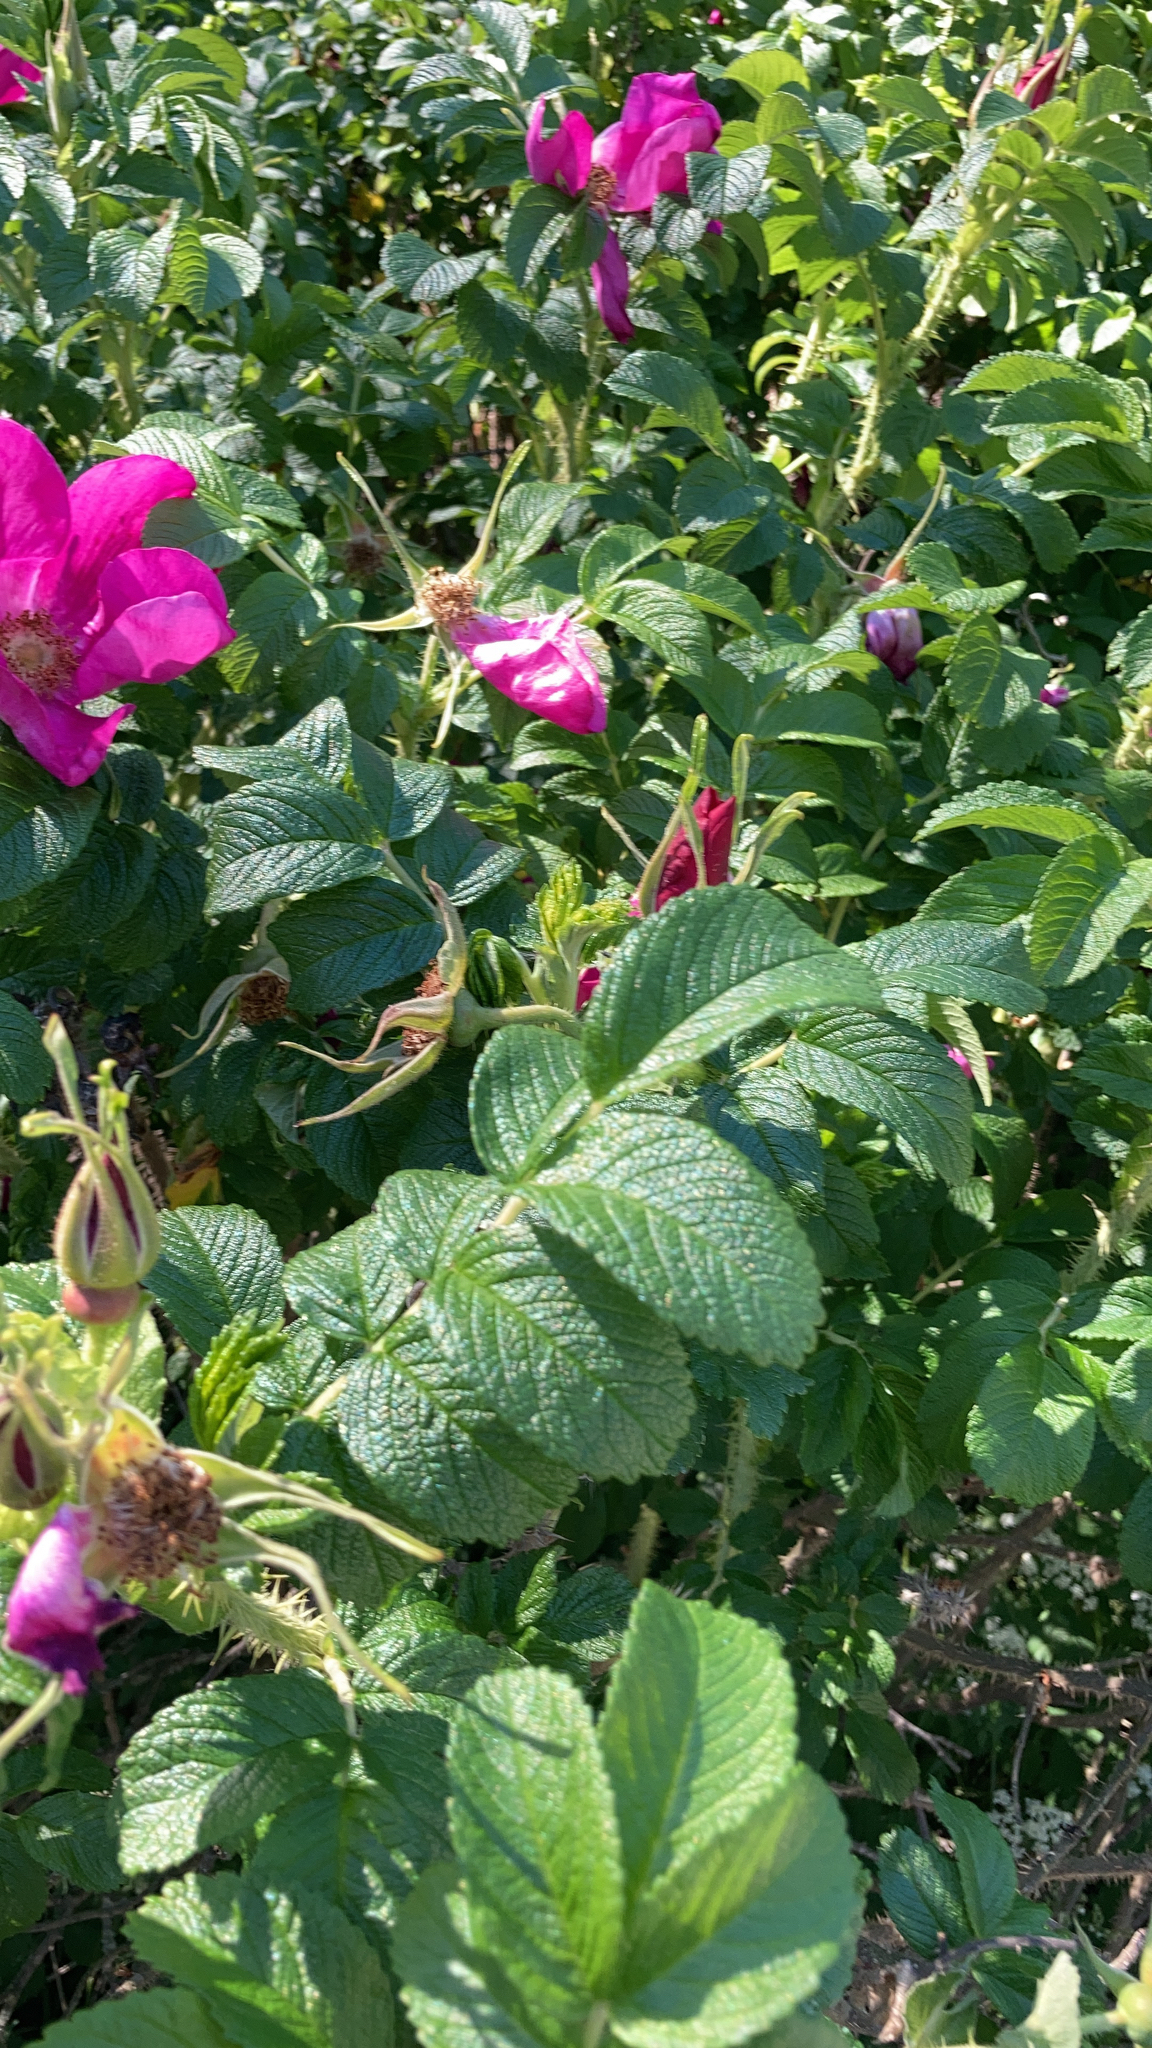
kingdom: Plantae
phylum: Tracheophyta
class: Magnoliopsida
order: Rosales
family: Rosaceae
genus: Rosa
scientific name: Rosa rugosa
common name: Japanese rose
